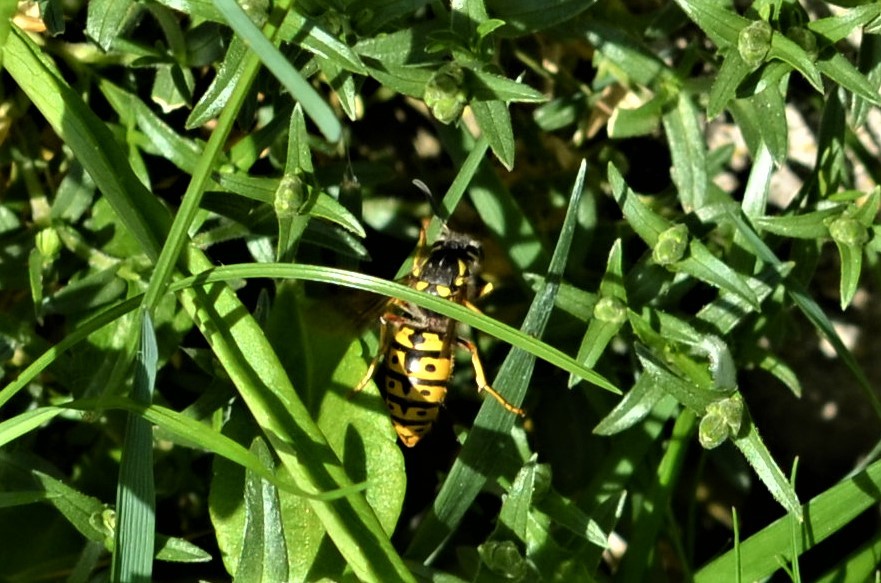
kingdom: Animalia
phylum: Arthropoda
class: Insecta
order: Hymenoptera
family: Vespidae
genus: Vespula
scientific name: Vespula germanica
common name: German wasp
